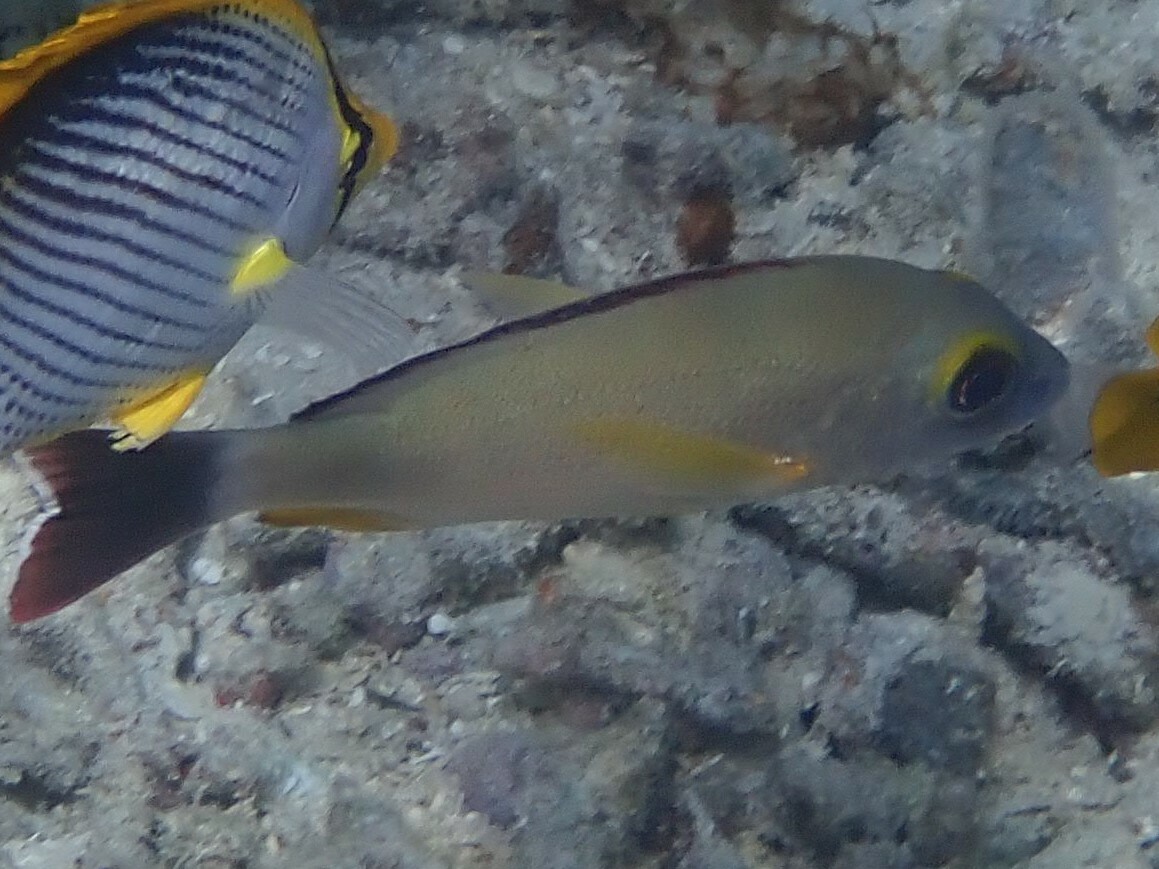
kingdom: Animalia
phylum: Chordata
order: Perciformes
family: Lutjanidae
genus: Lutjanus
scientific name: Lutjanus fulvus
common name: Blacktail snapper
